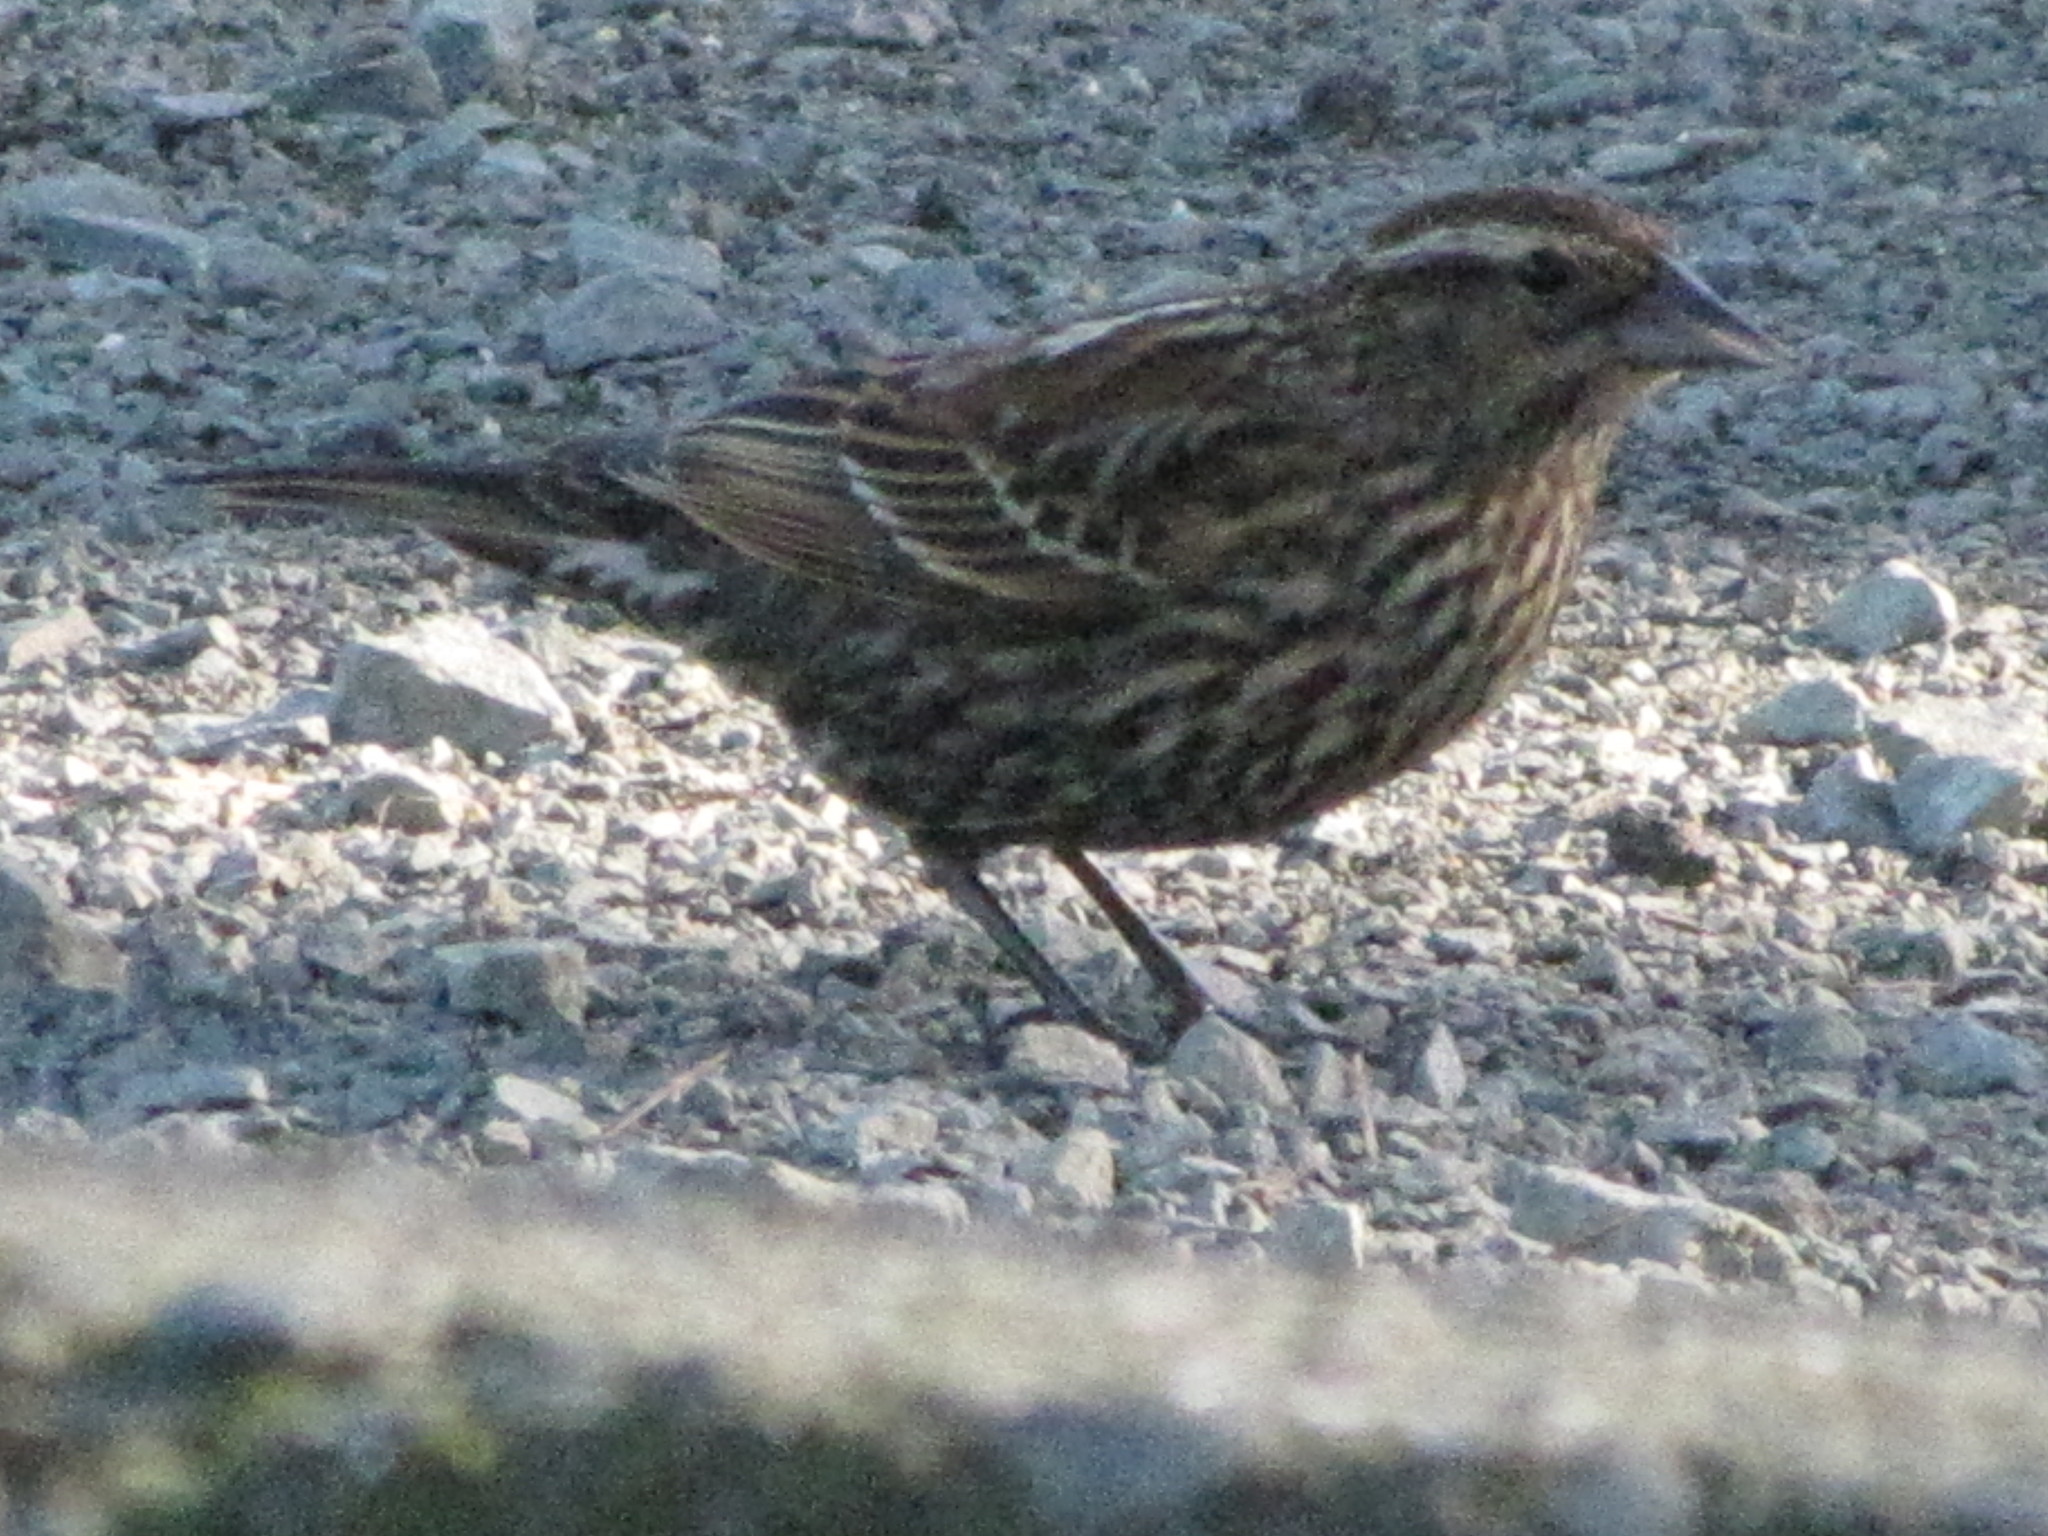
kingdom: Animalia
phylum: Chordata
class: Aves
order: Passeriformes
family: Icteridae
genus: Agelaius
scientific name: Agelaius phoeniceus
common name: Red-winged blackbird
